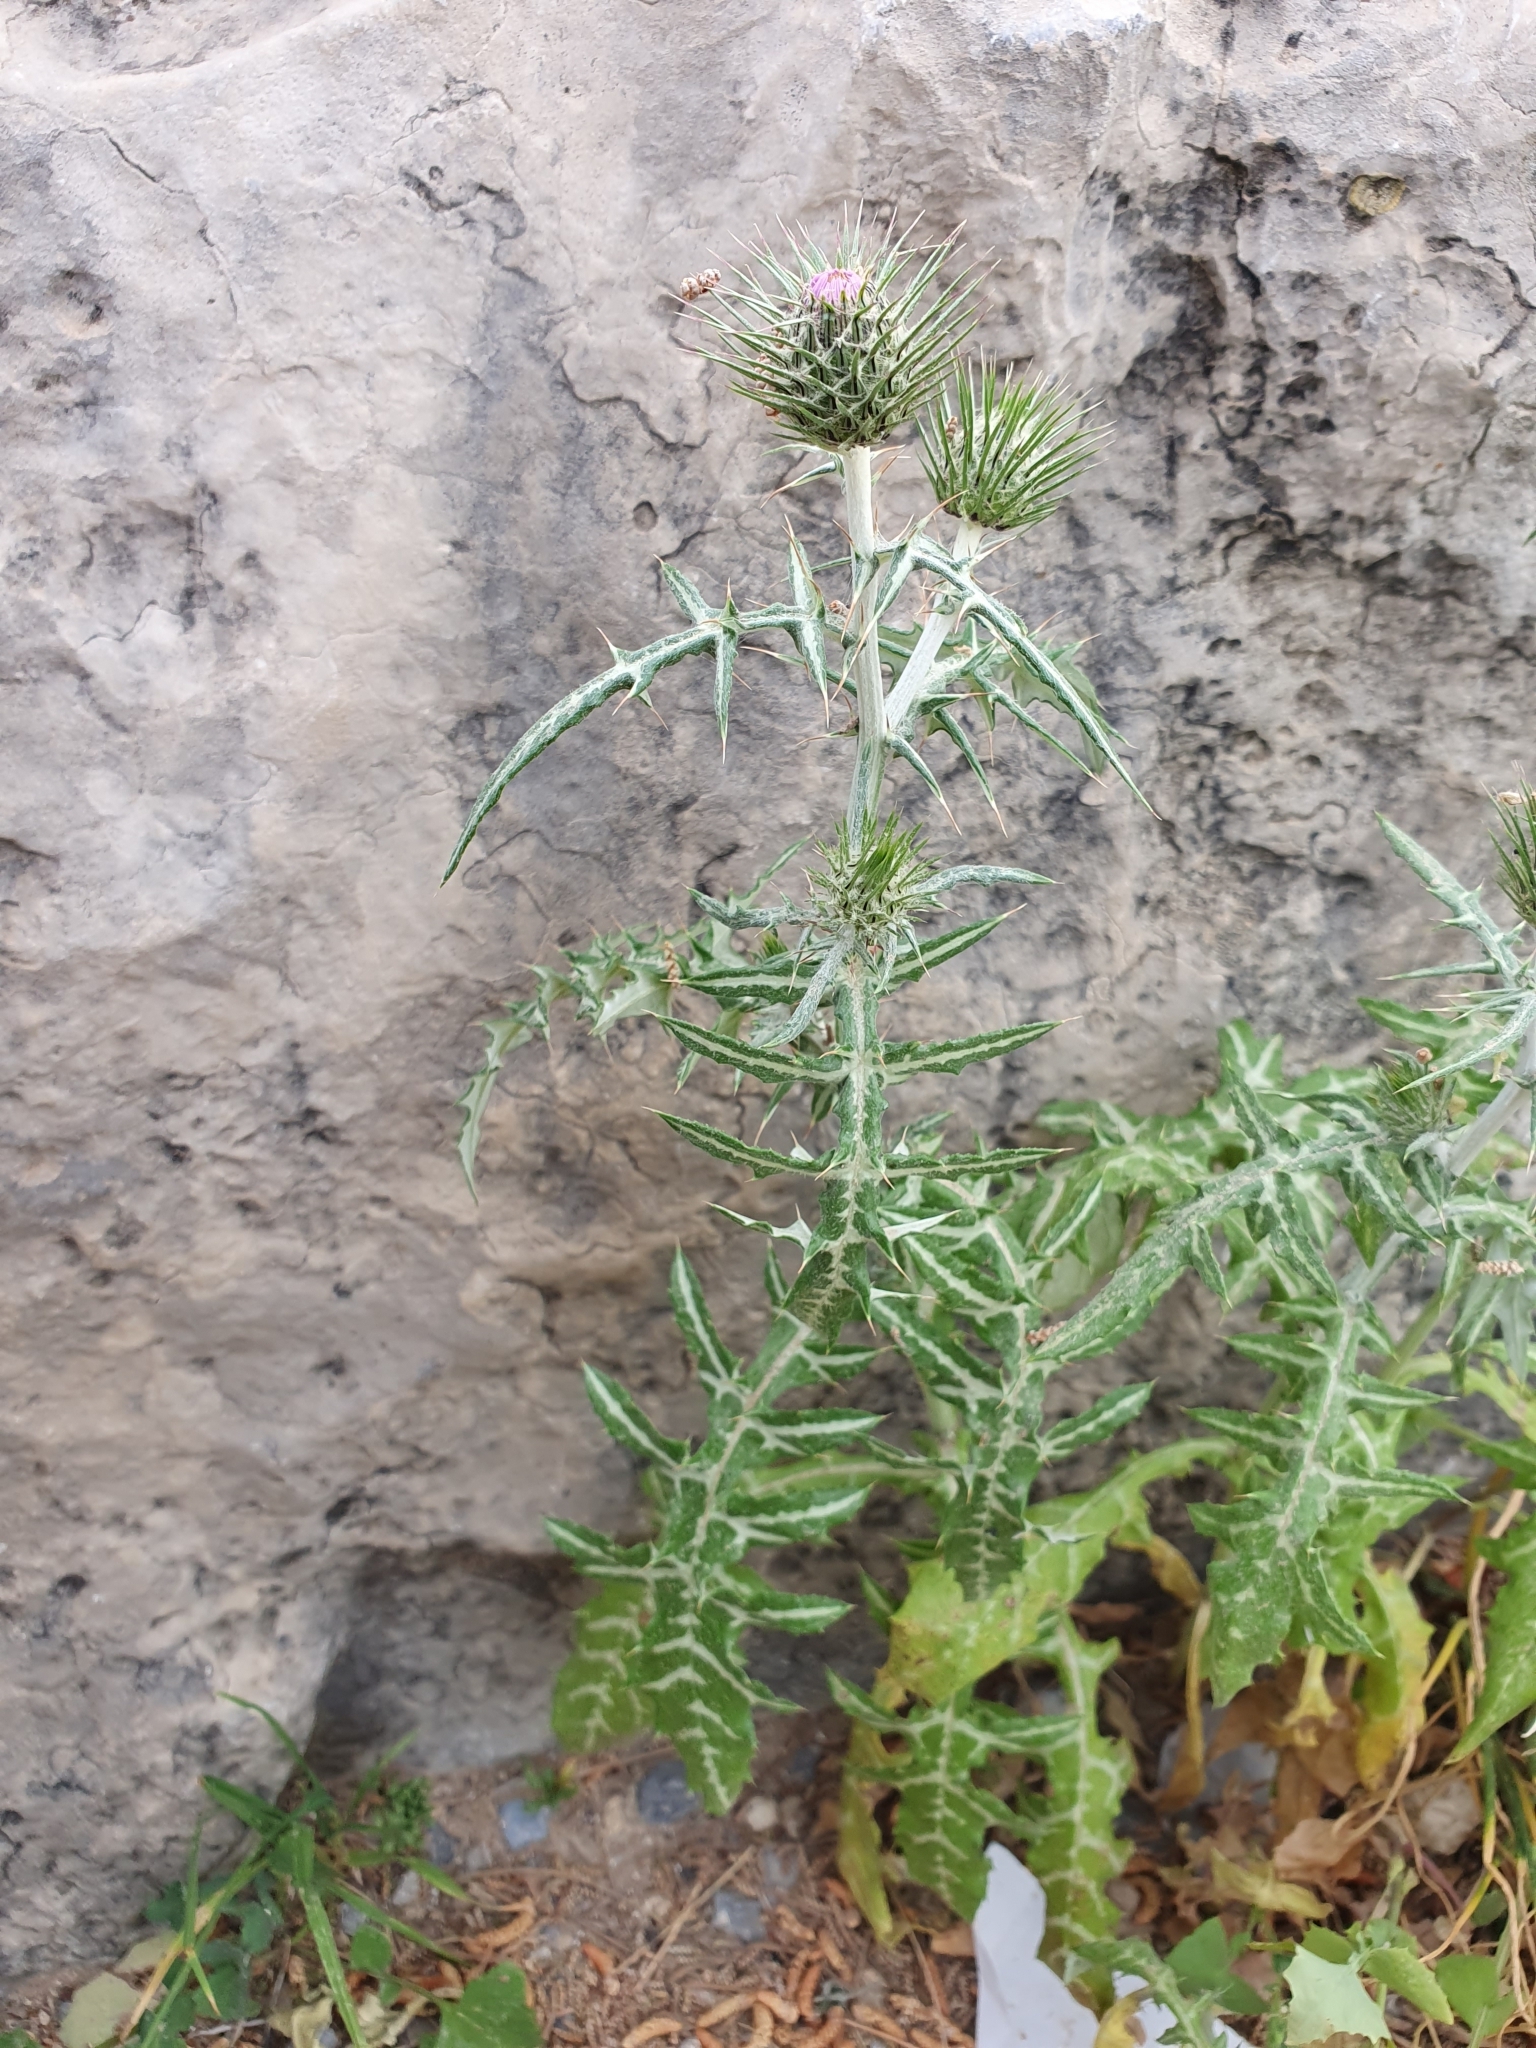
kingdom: Plantae
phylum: Tracheophyta
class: Magnoliopsida
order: Asterales
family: Asteraceae
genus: Galactites
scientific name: Galactites tomentosa
